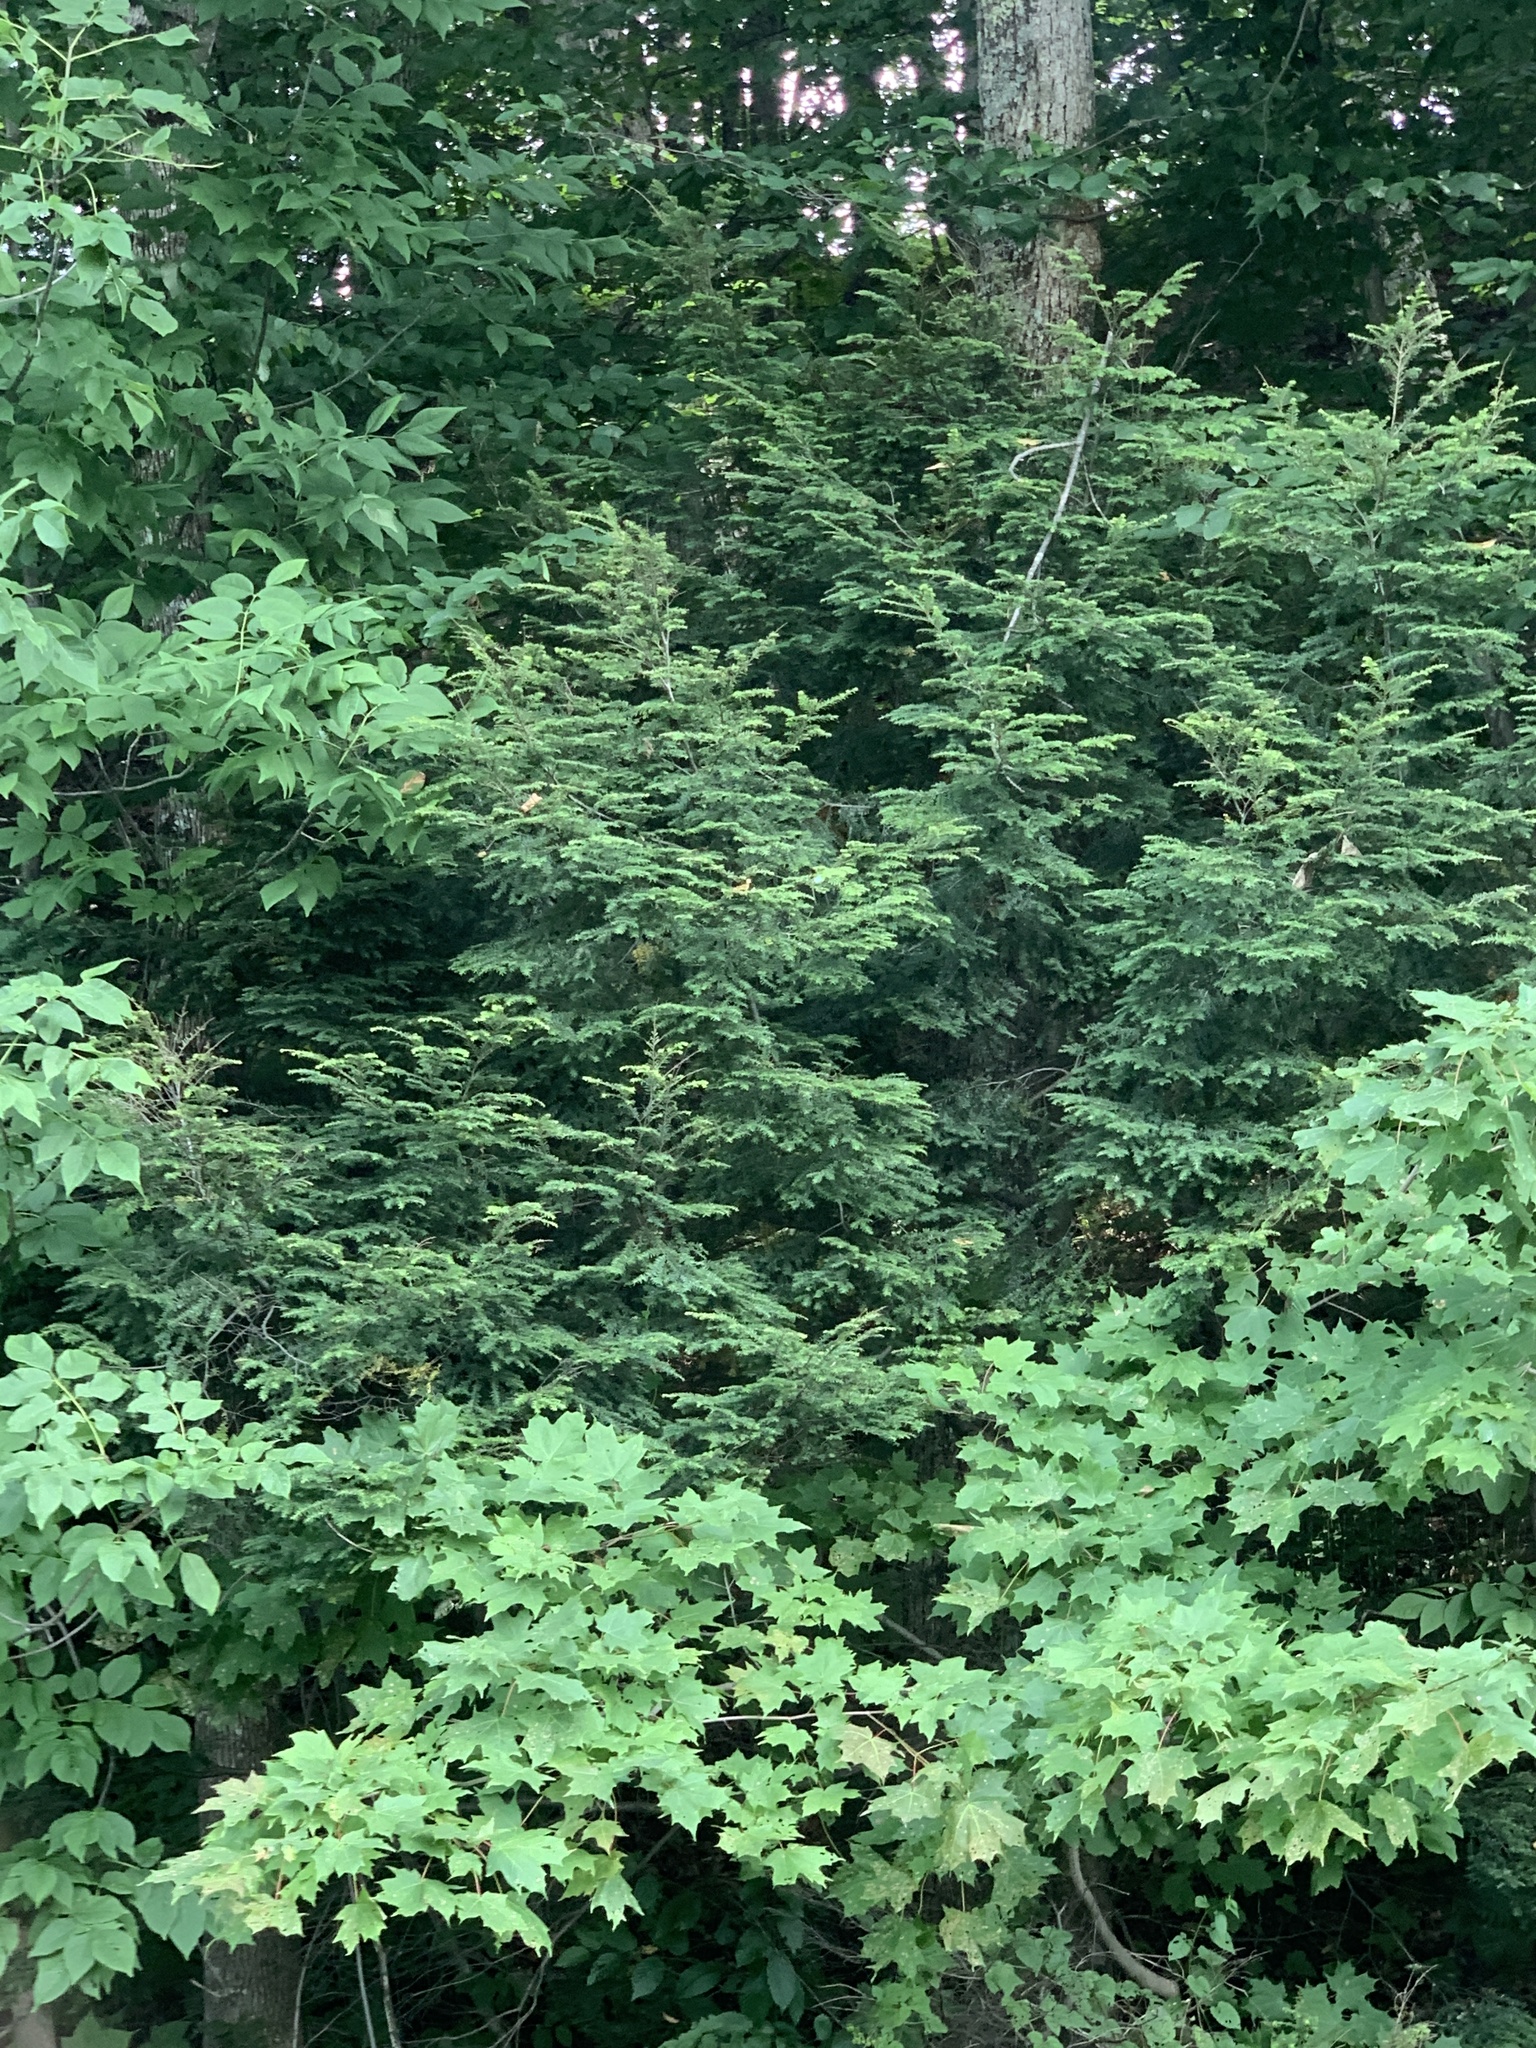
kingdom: Plantae
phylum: Tracheophyta
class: Pinopsida
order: Pinales
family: Pinaceae
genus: Tsuga
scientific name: Tsuga canadensis
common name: Eastern hemlock
